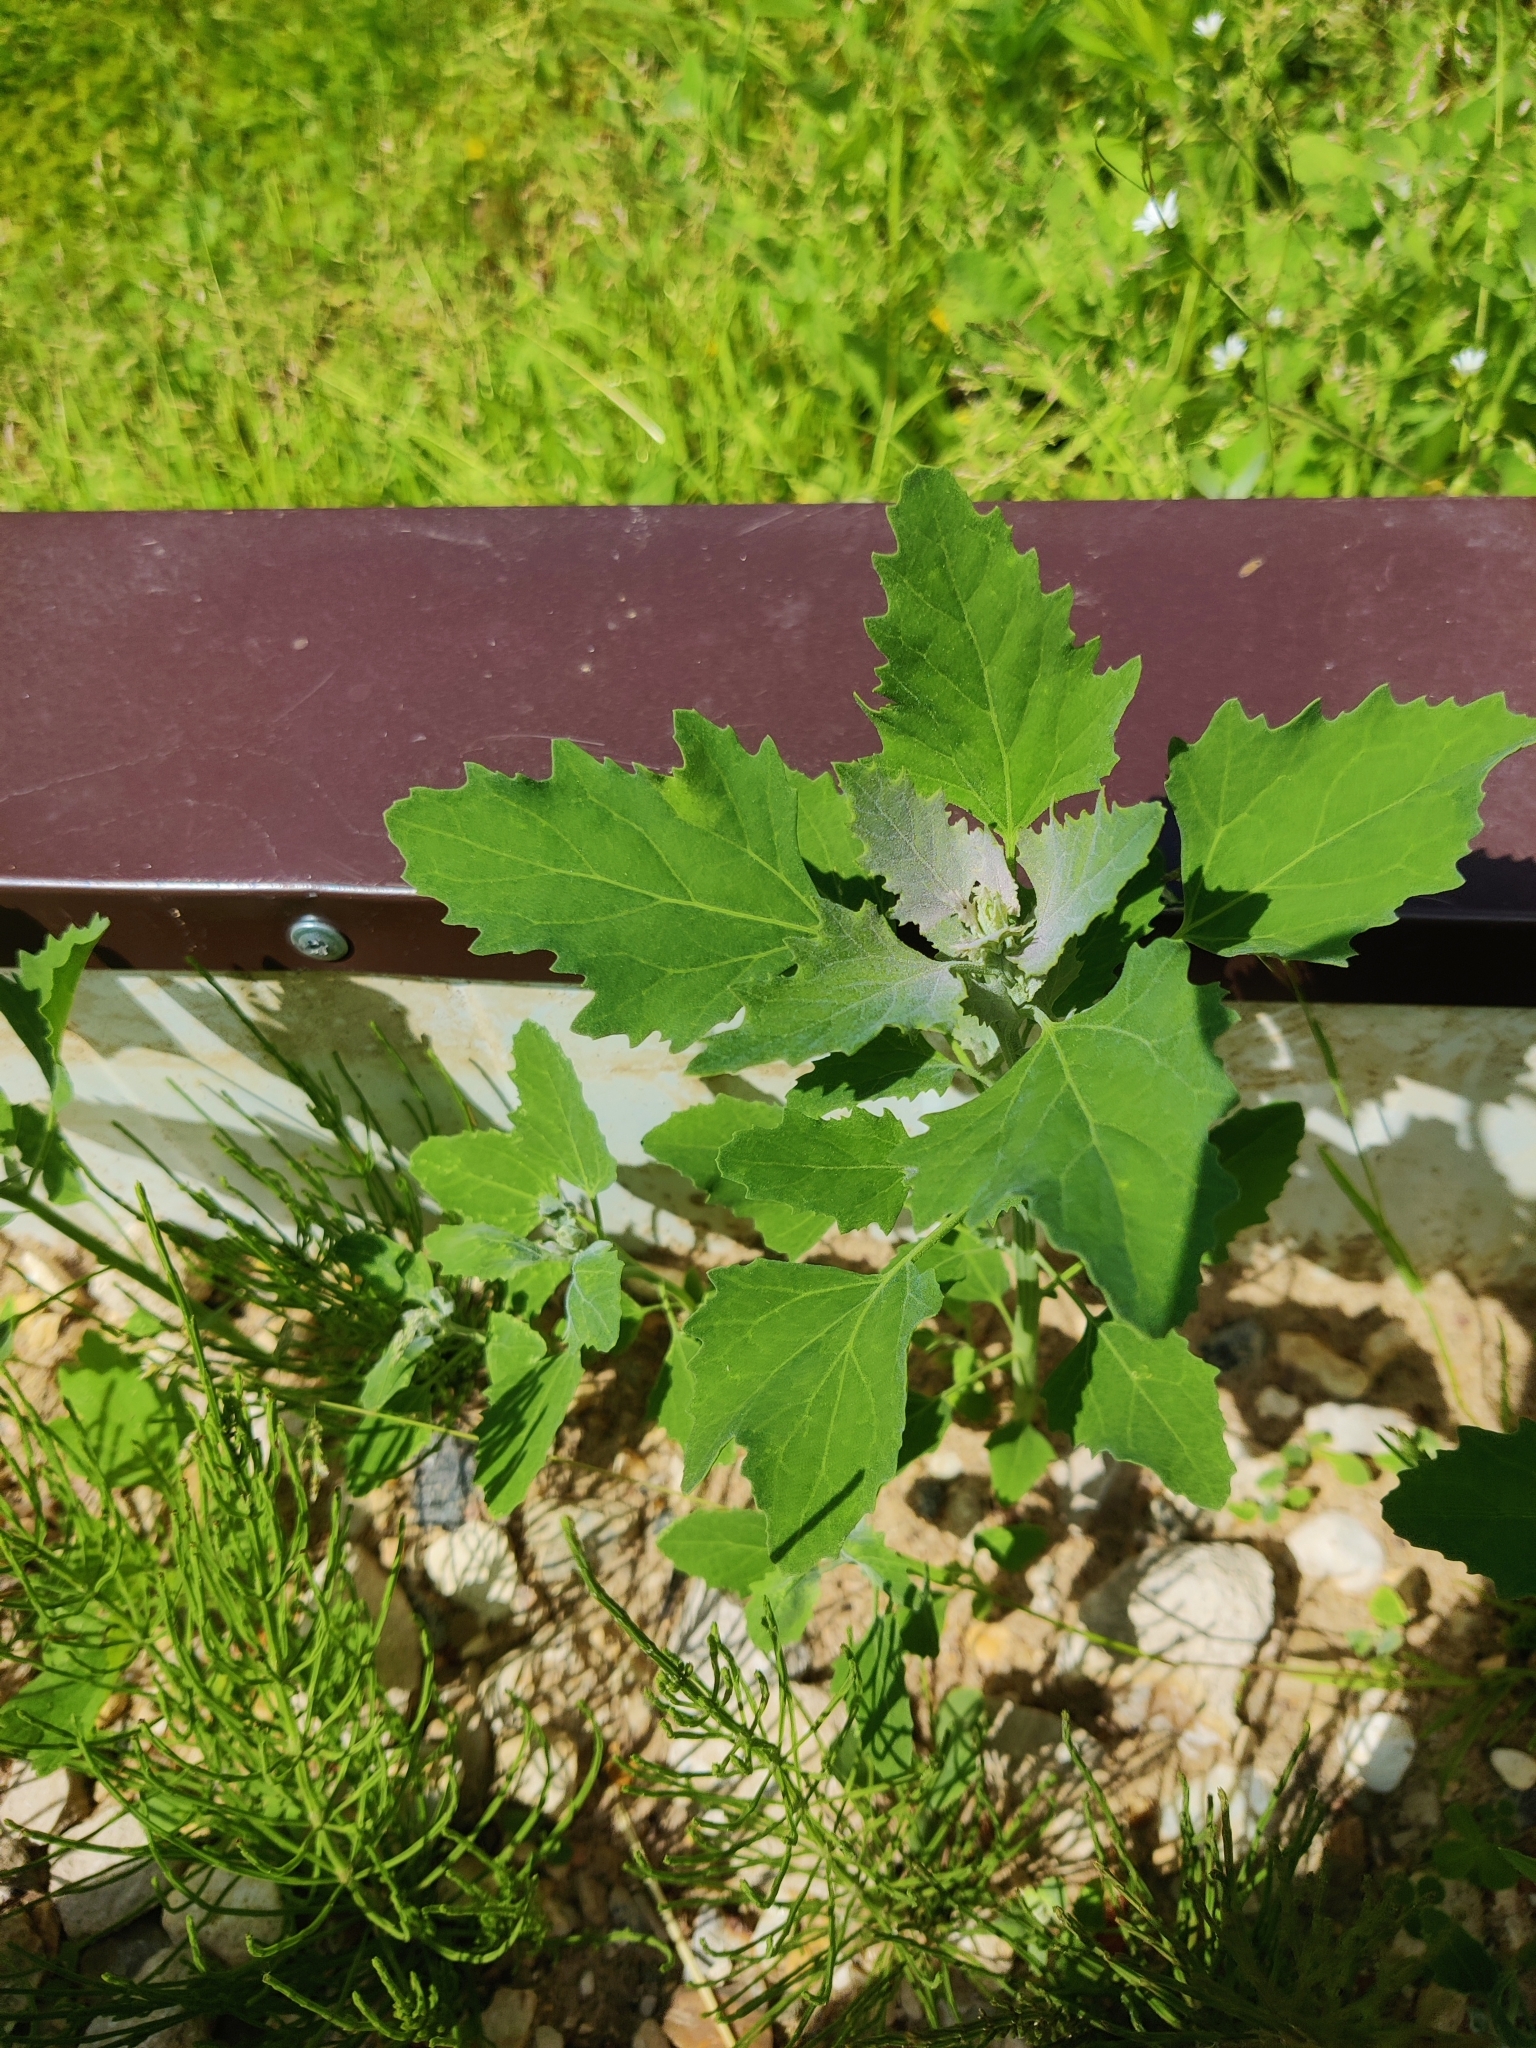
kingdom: Plantae
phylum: Tracheophyta
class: Magnoliopsida
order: Caryophyllales
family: Amaranthaceae
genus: Chenopodium
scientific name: Chenopodium album
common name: Fat-hen
